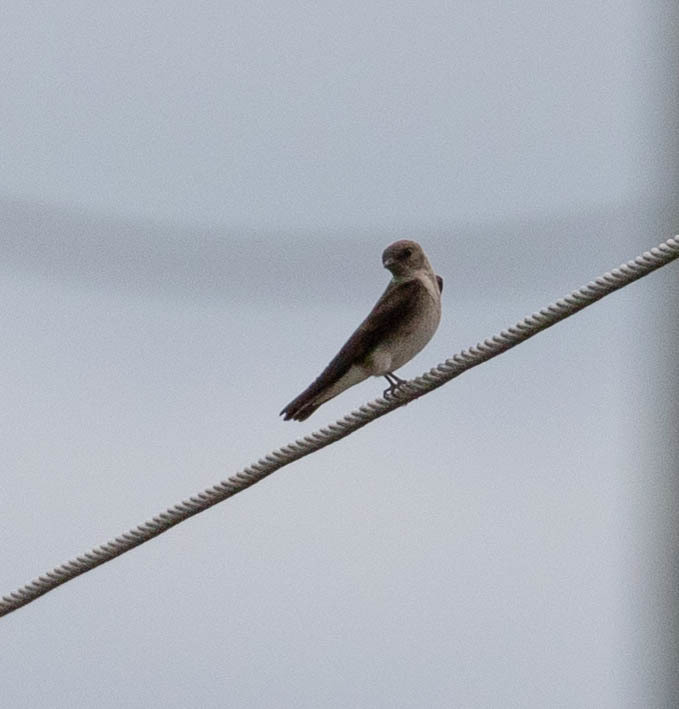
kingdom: Animalia
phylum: Chordata
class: Aves
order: Passeriformes
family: Hirundinidae
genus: Stelgidopteryx
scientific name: Stelgidopteryx serripennis
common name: Northern rough-winged swallow
